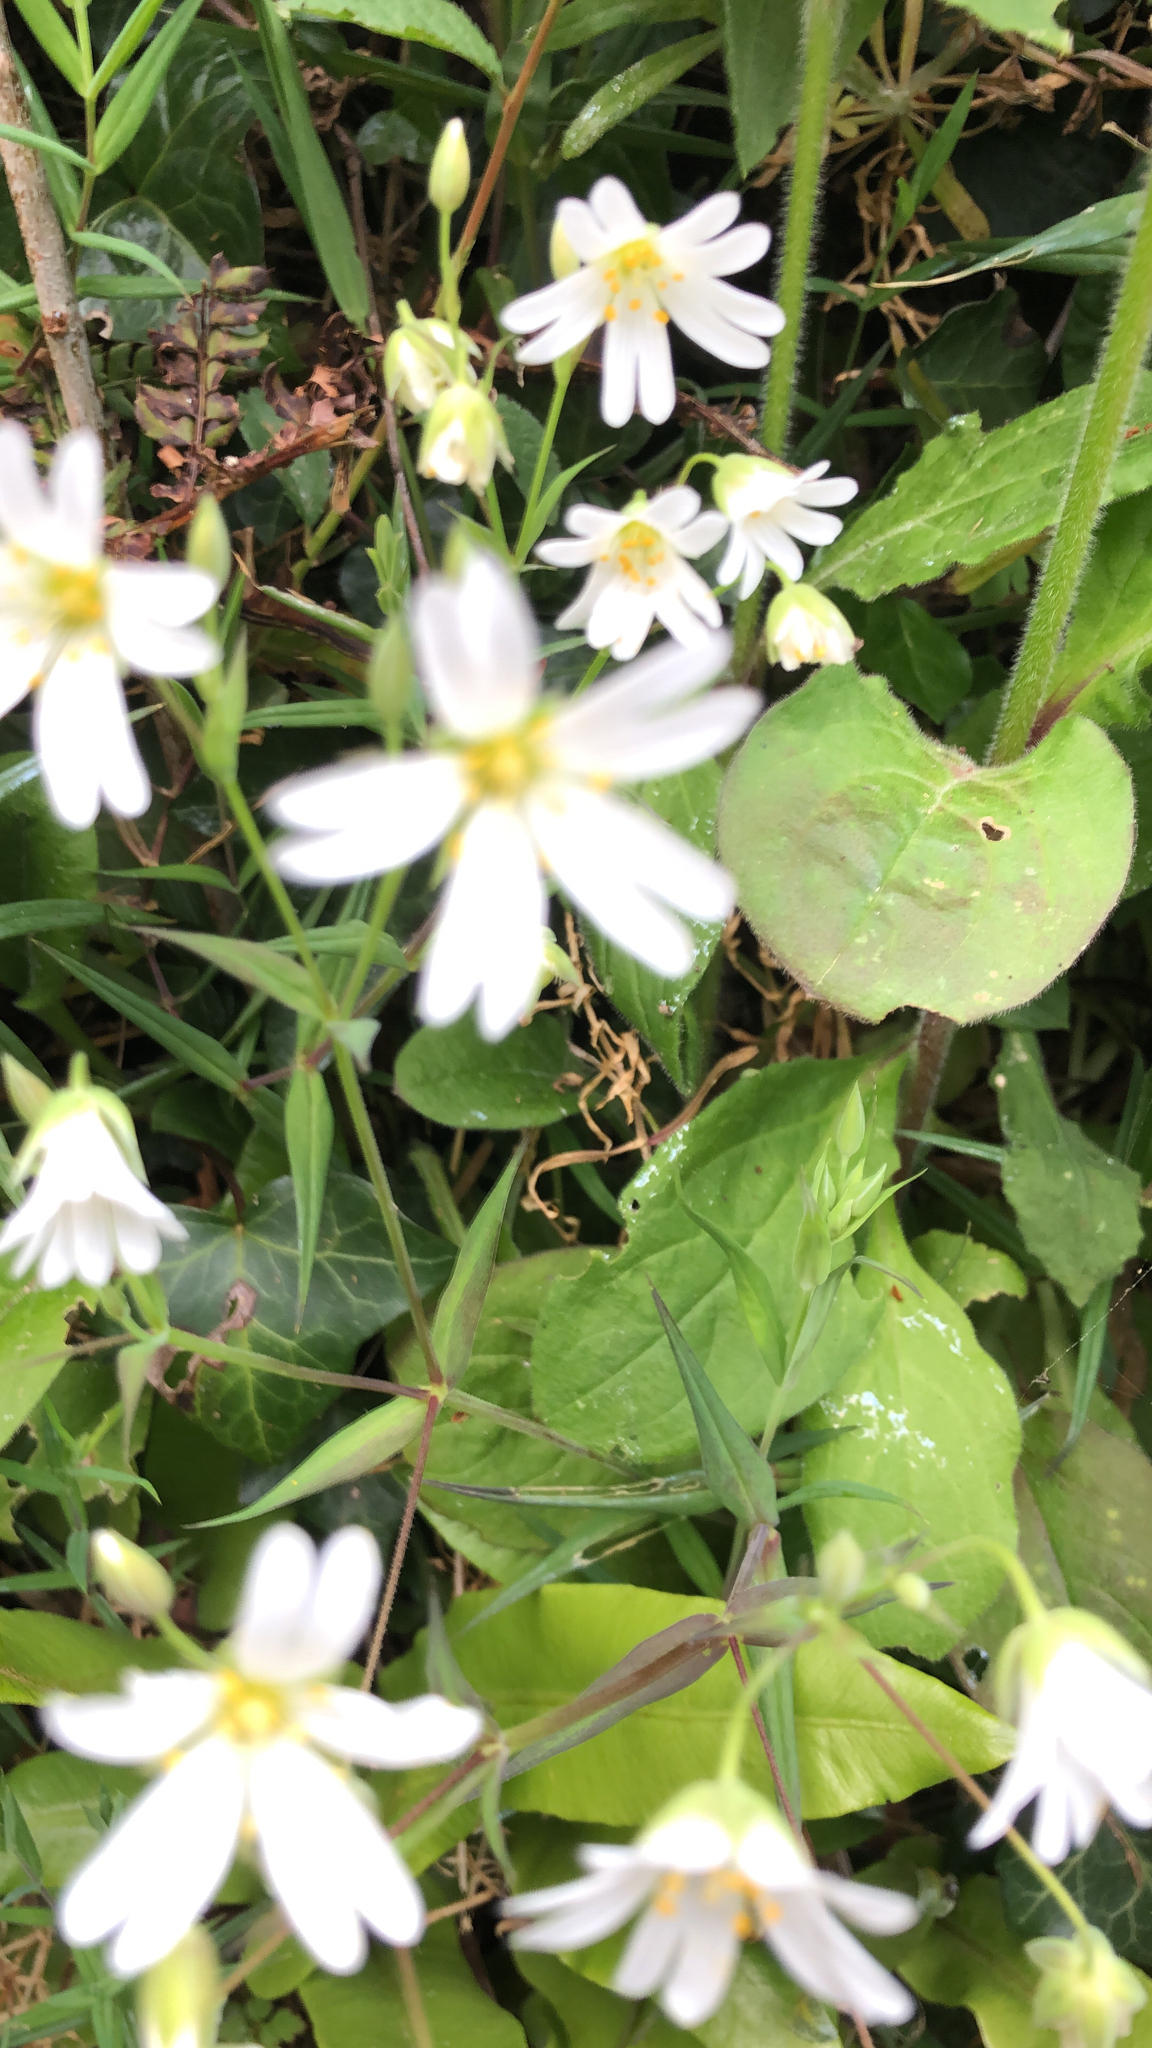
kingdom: Plantae
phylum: Tracheophyta
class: Magnoliopsida
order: Caryophyllales
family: Caryophyllaceae
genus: Rabelera
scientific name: Rabelera holostea
